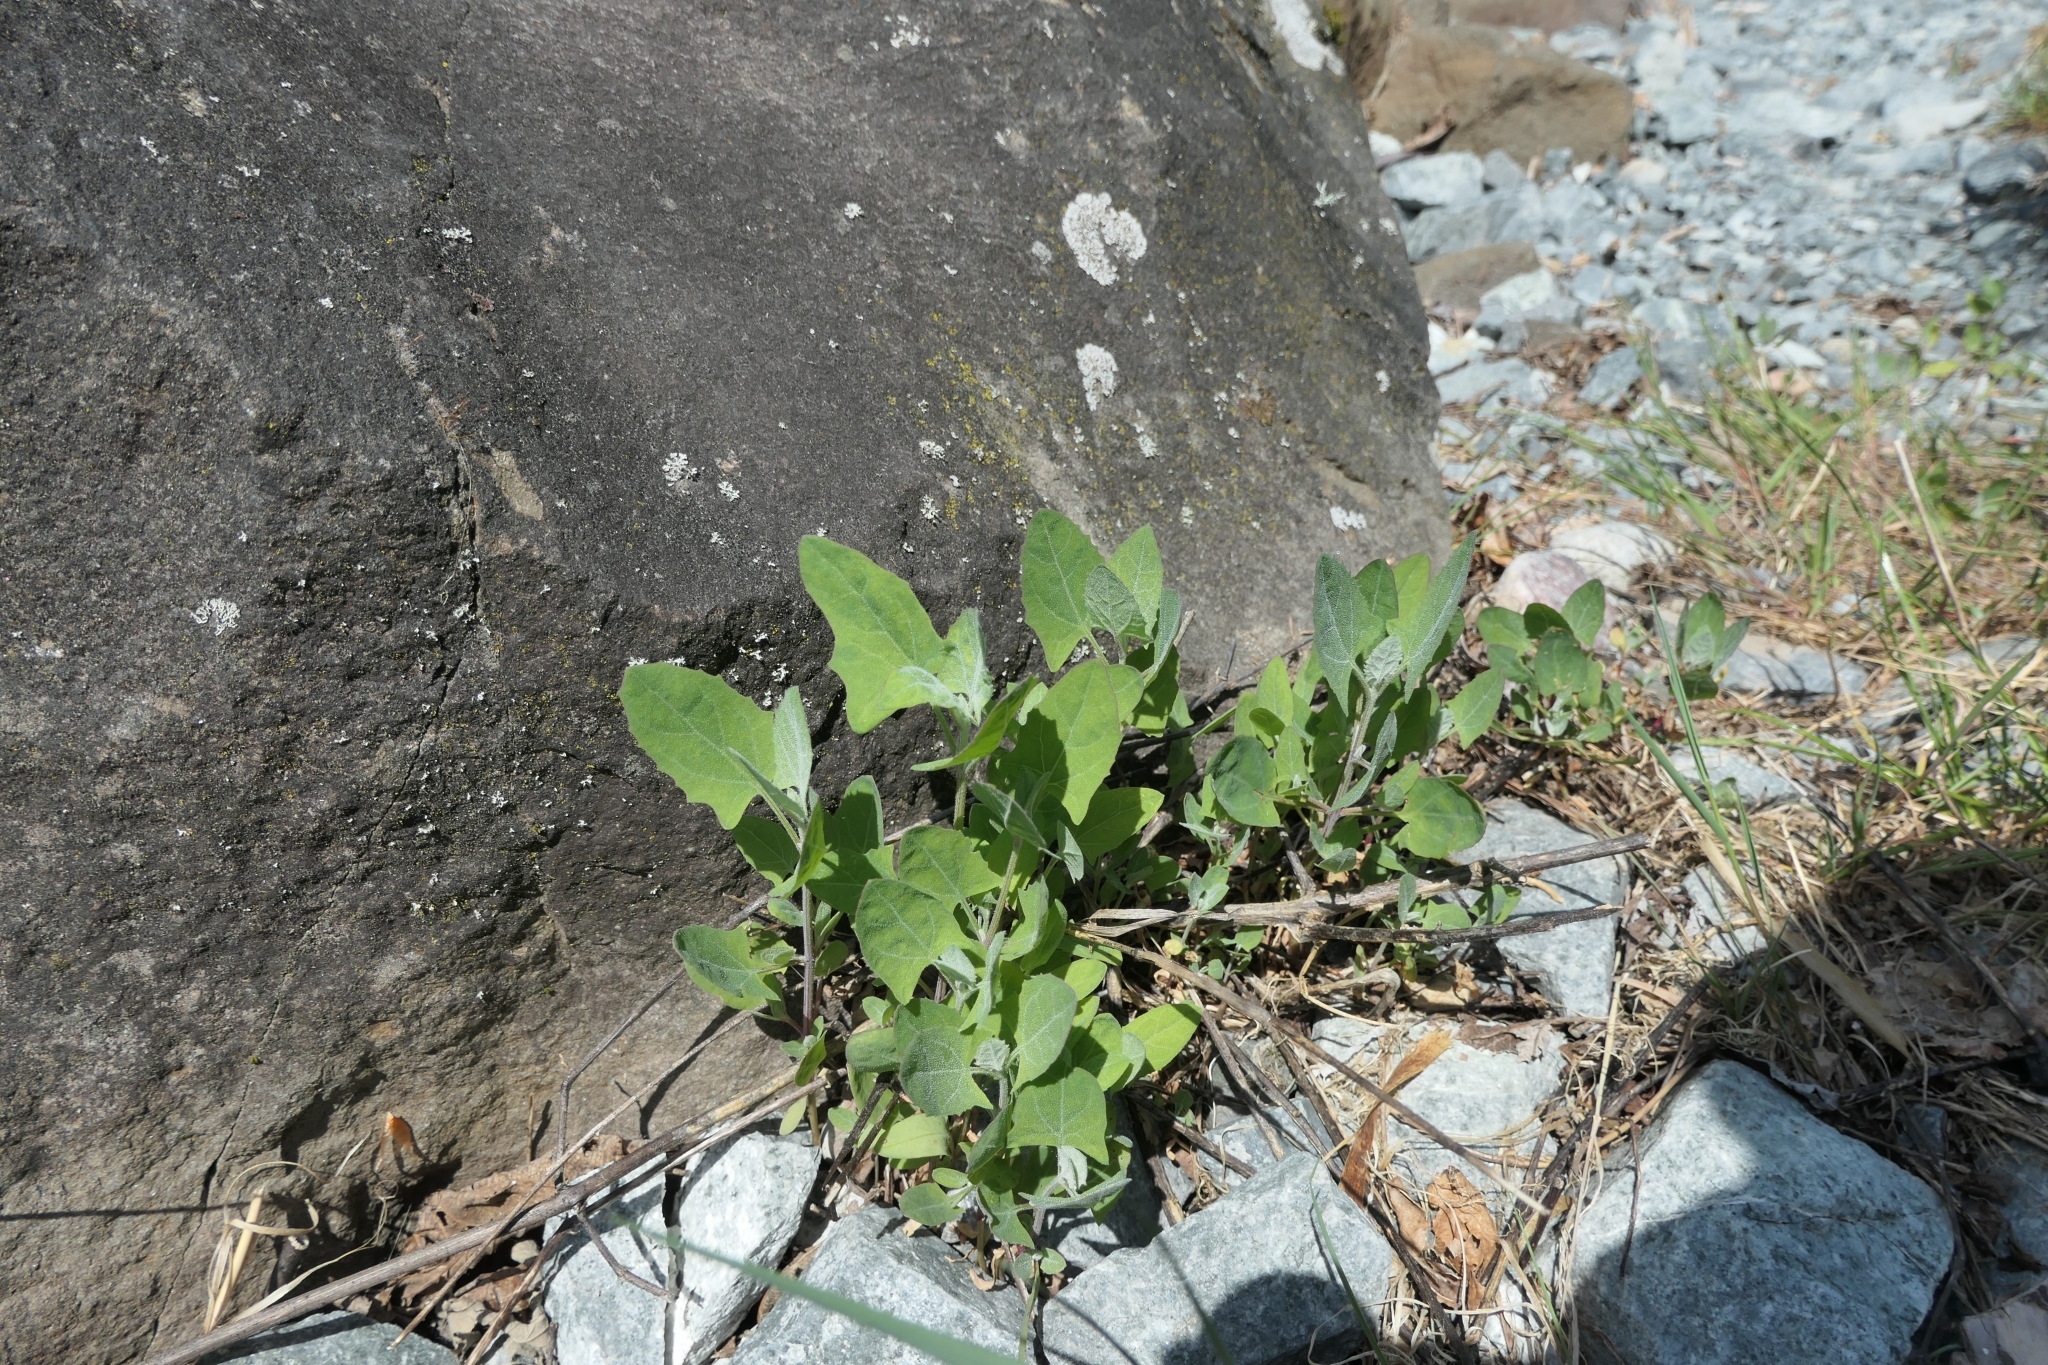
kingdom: Plantae
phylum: Tracheophyta
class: Magnoliopsida
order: Caryophyllales
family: Amaranthaceae
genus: Atriplex
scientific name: Atriplex prostrata
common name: Spear-leaved orache
